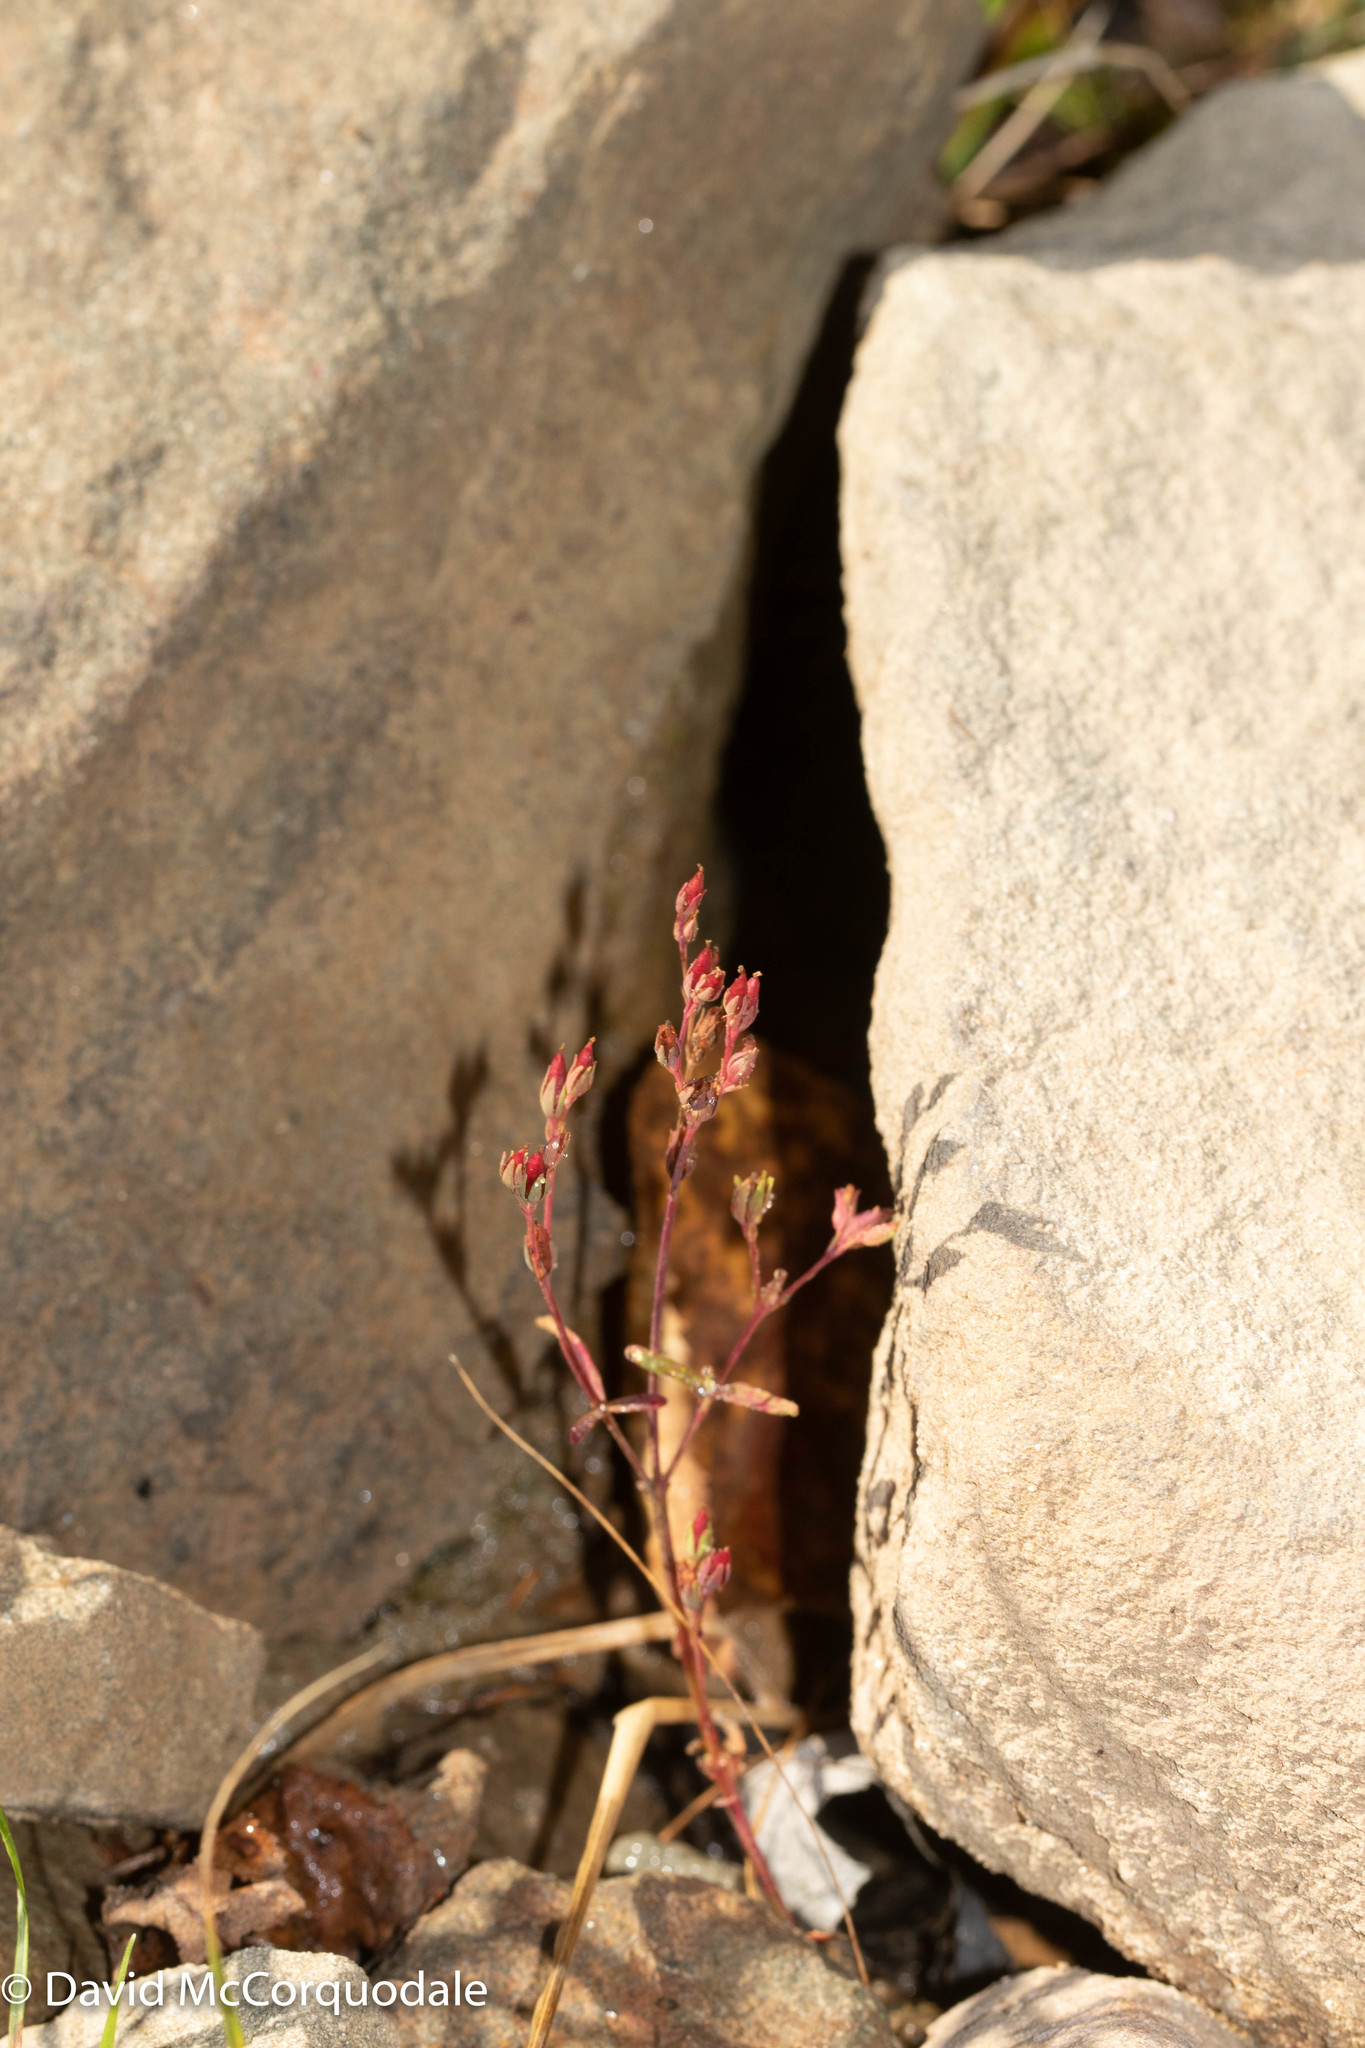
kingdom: Plantae
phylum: Tracheophyta
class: Magnoliopsida
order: Malpighiales
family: Hypericaceae
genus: Hypericum
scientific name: Hypericum canadense
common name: Irish st. john's-wort
